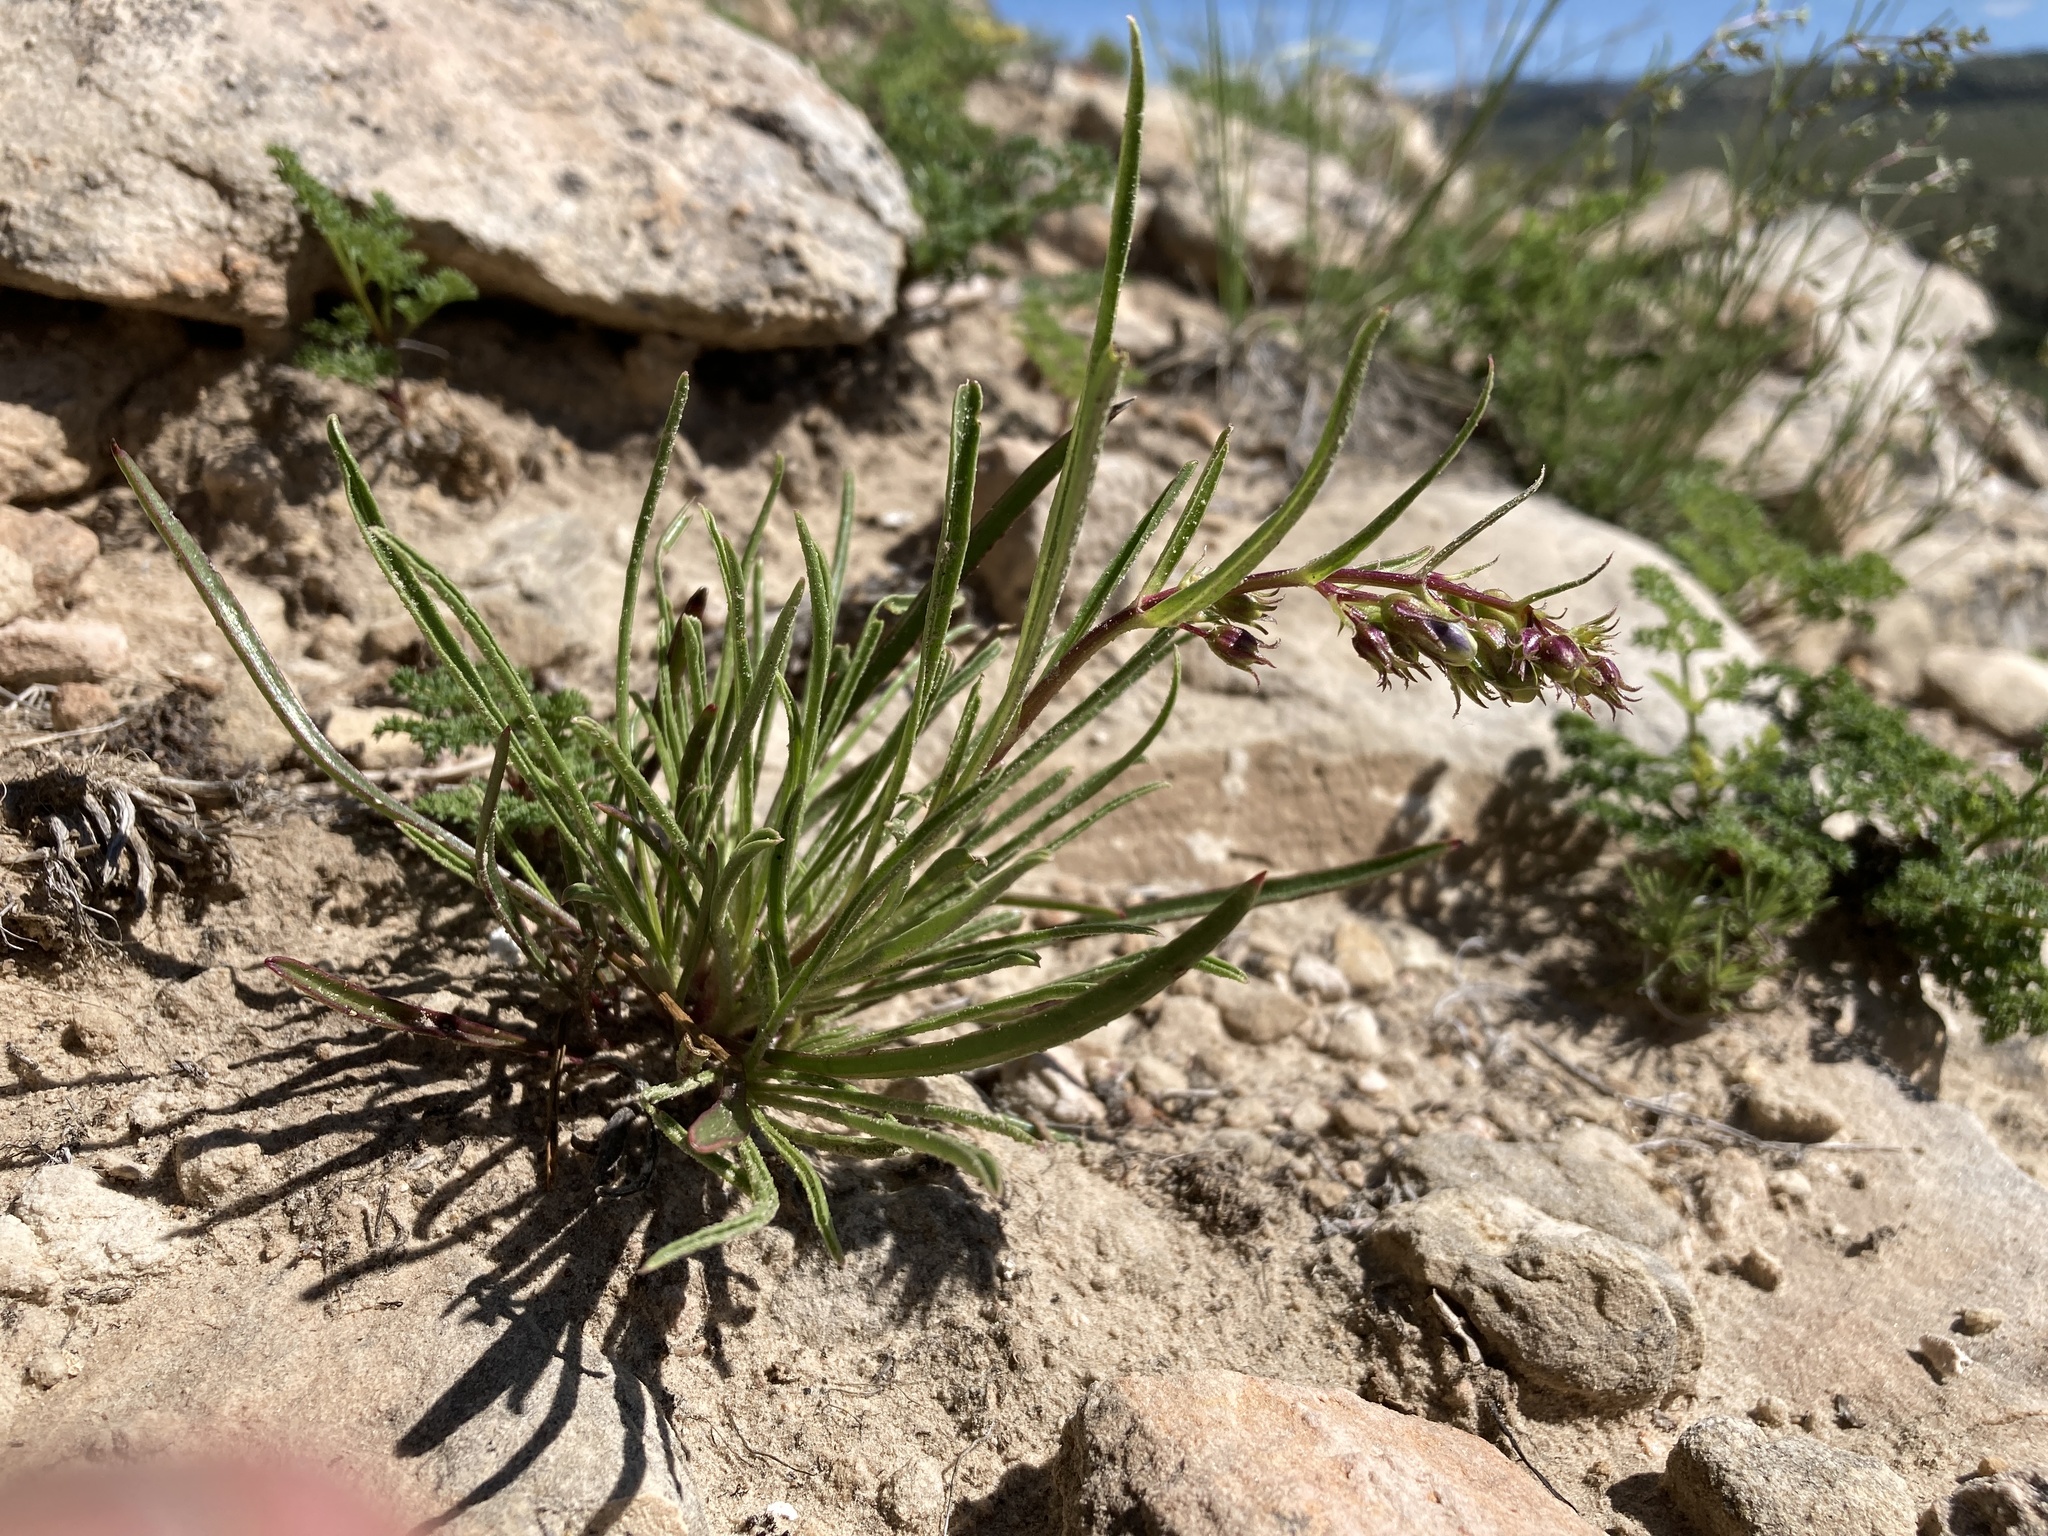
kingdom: Plantae
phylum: Tracheophyta
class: Magnoliopsida
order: Lamiales
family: Plantaginaceae
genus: Penstemon
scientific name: Penstemon caryi
